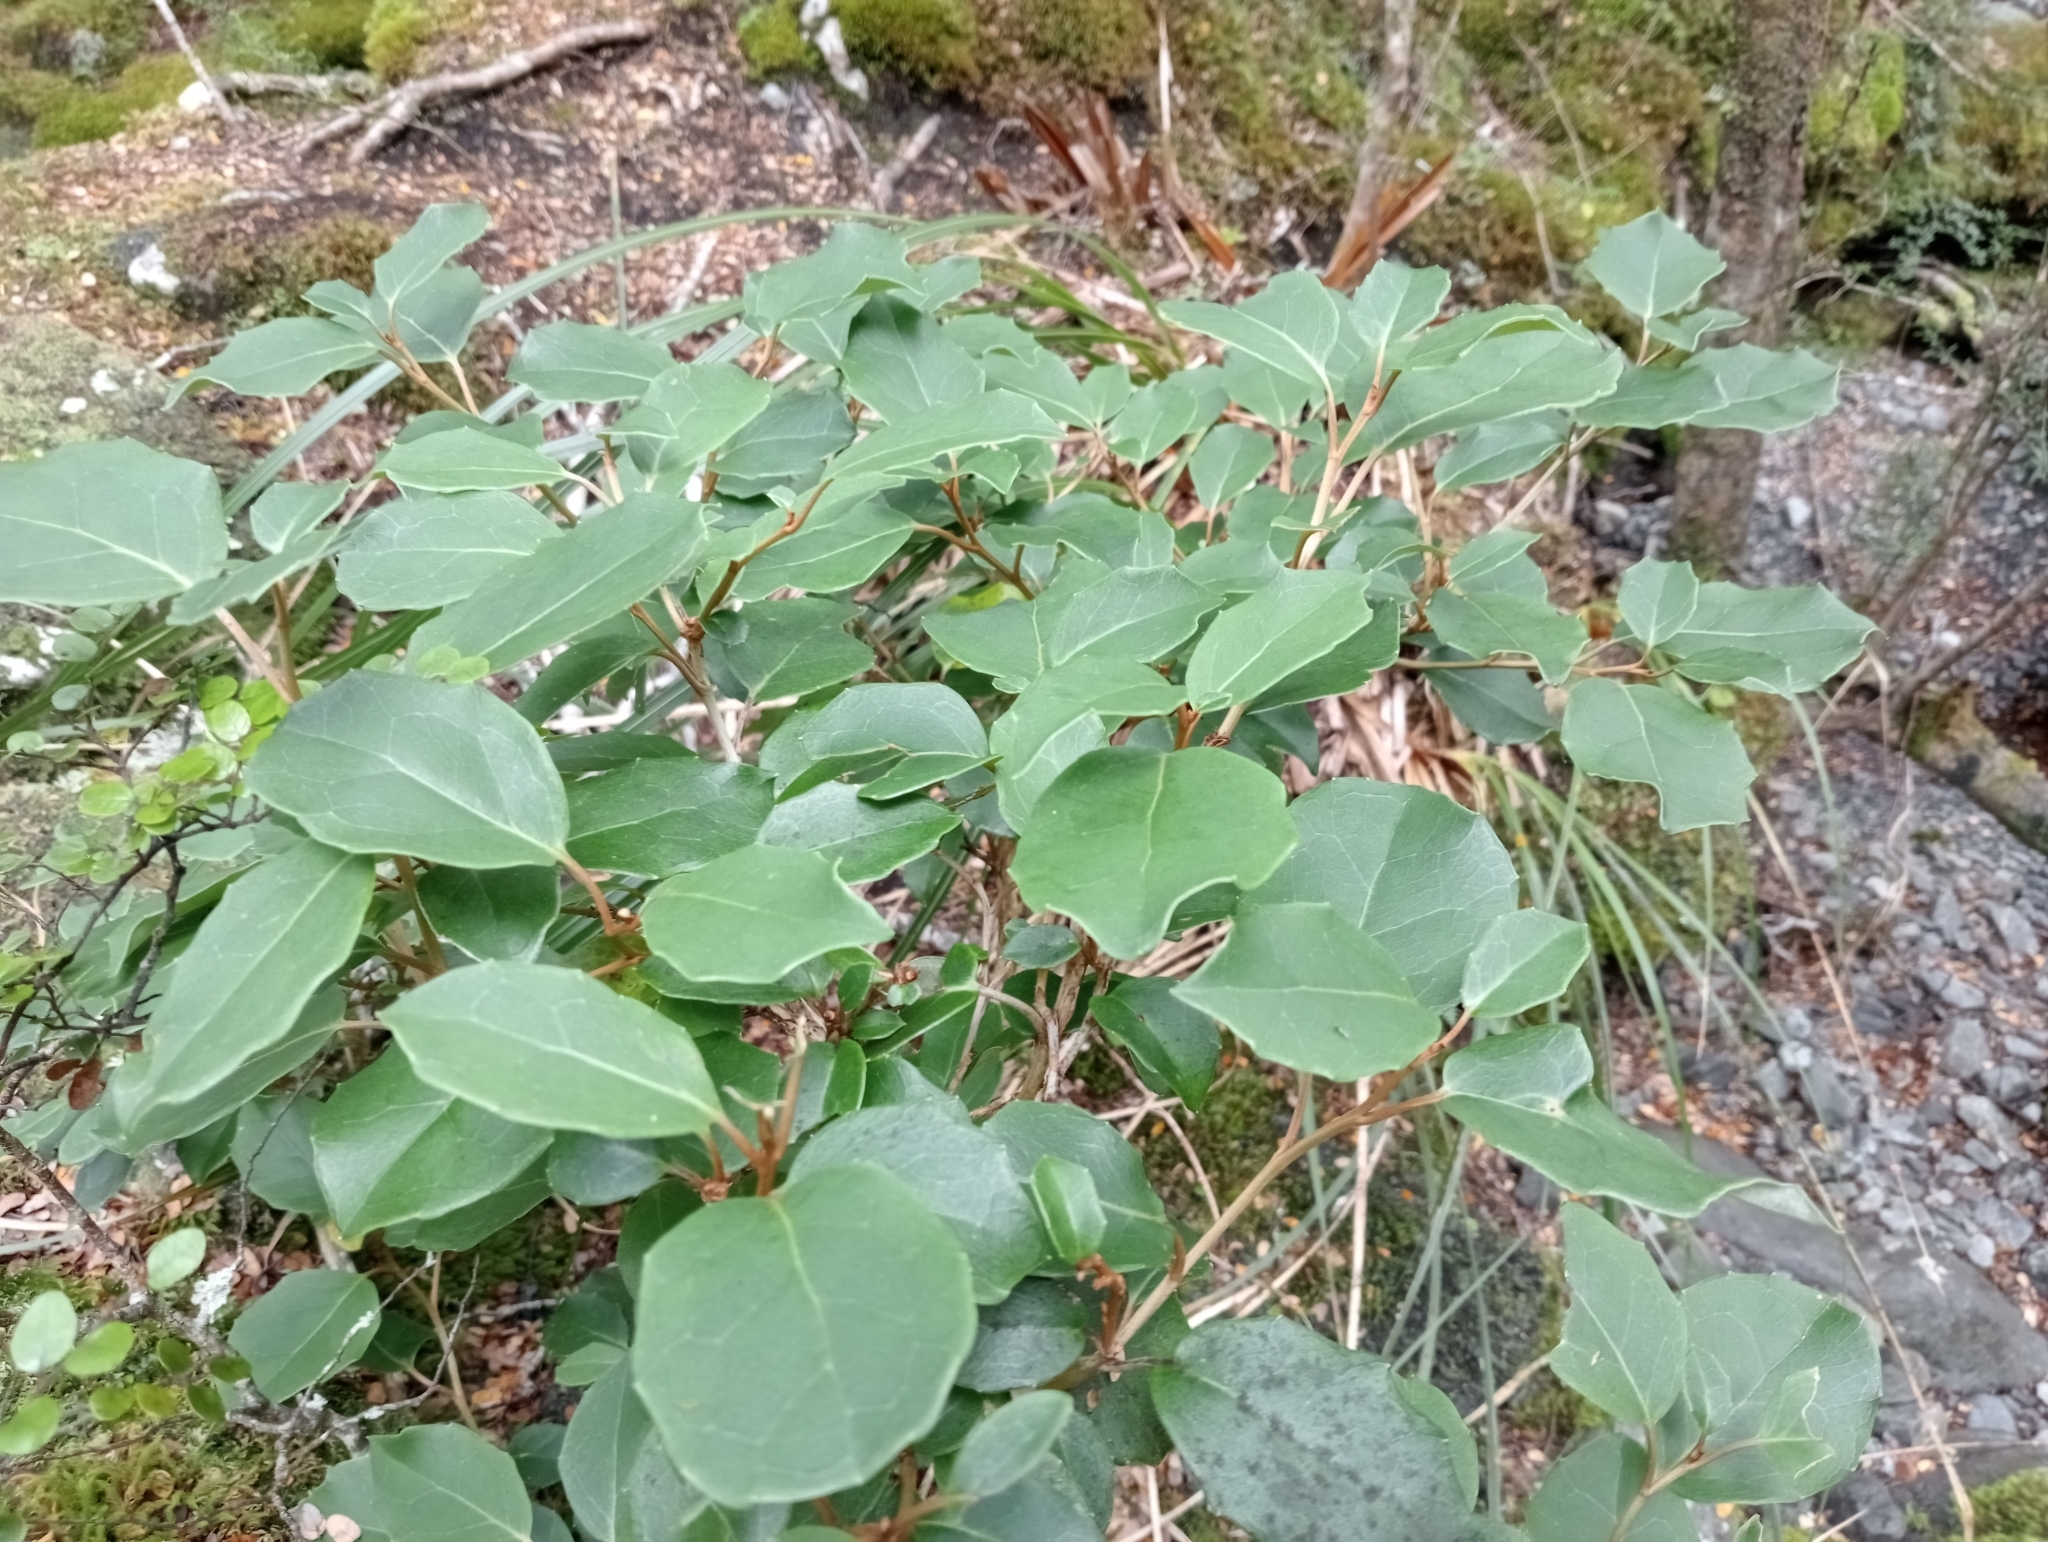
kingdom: Plantae
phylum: Tracheophyta
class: Magnoliopsida
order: Asterales
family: Asteraceae
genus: Olearia
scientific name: Olearia arborescens
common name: Glossy tree daisy
